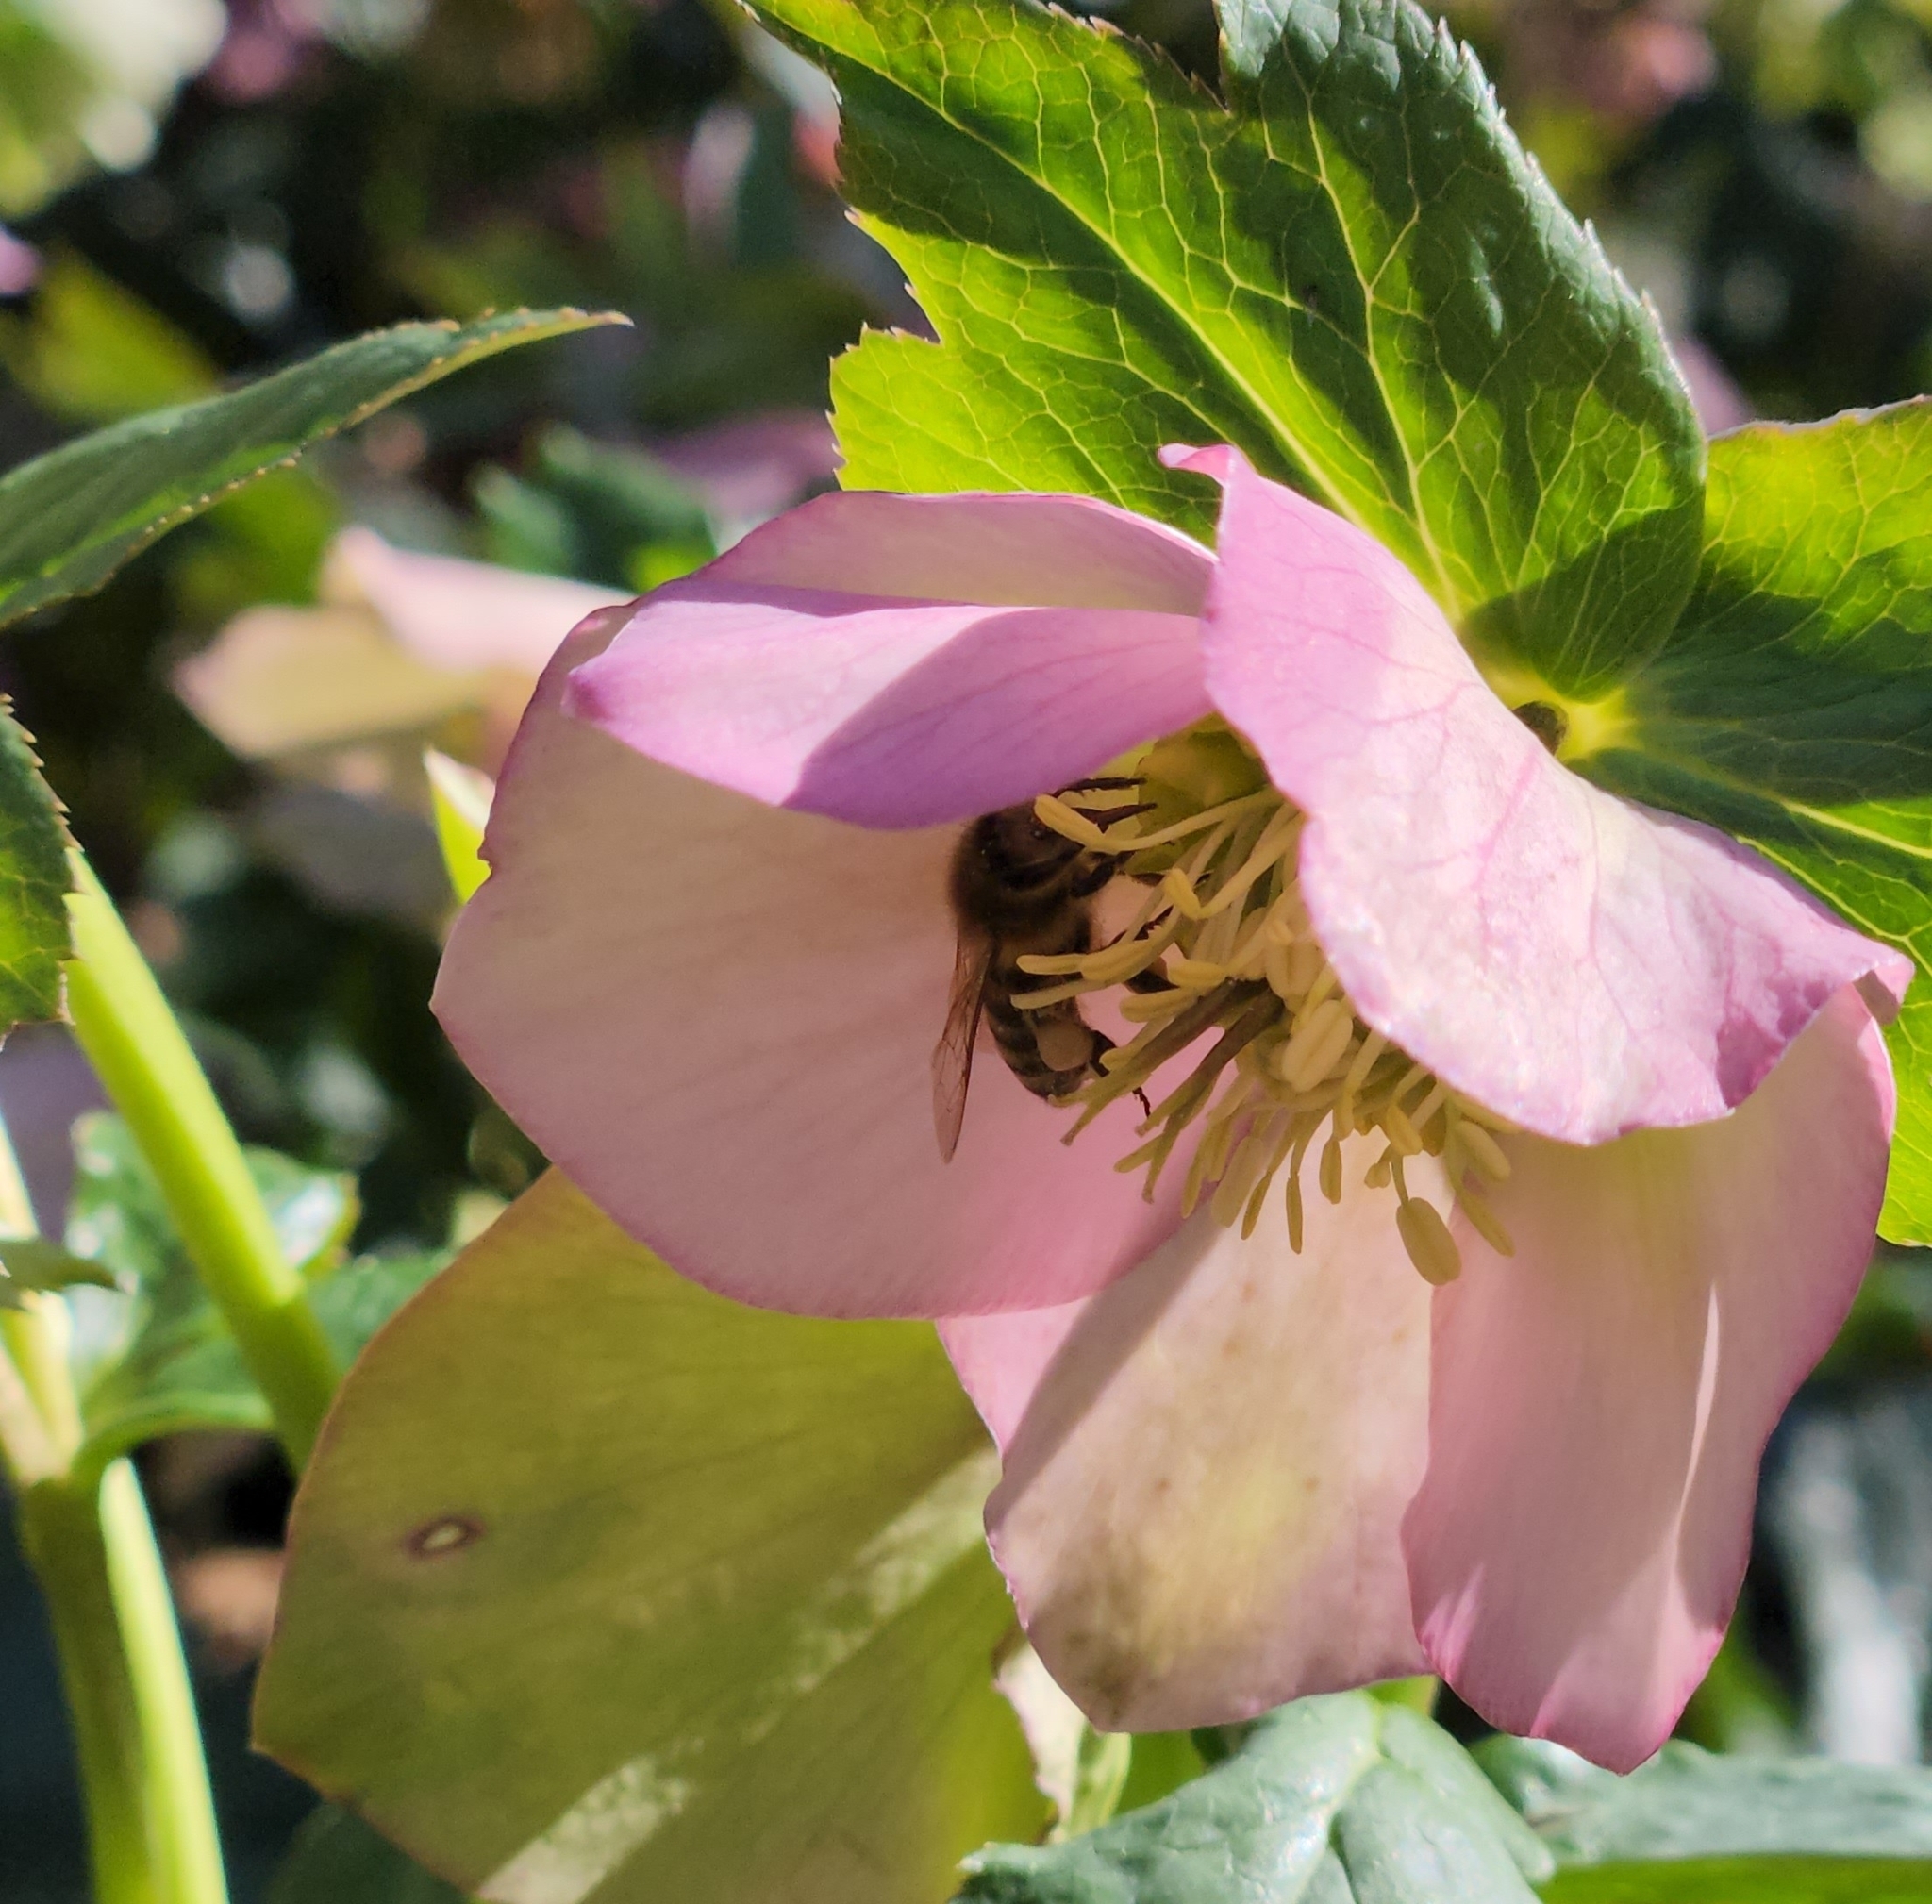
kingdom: Animalia
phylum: Arthropoda
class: Insecta
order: Hymenoptera
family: Apidae
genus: Apis
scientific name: Apis mellifera
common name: Honey bee
